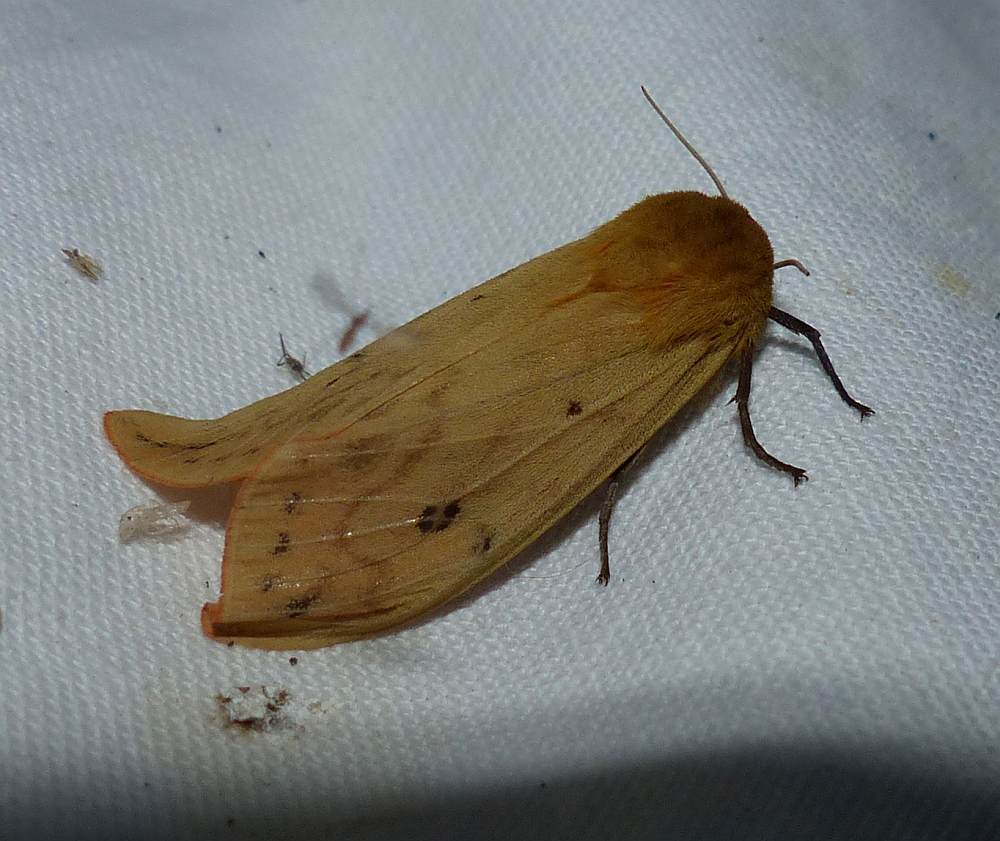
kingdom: Animalia
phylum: Arthropoda
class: Insecta
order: Lepidoptera
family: Erebidae
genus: Pyrrharctia
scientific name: Pyrrharctia isabella
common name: Isabella tiger moth
